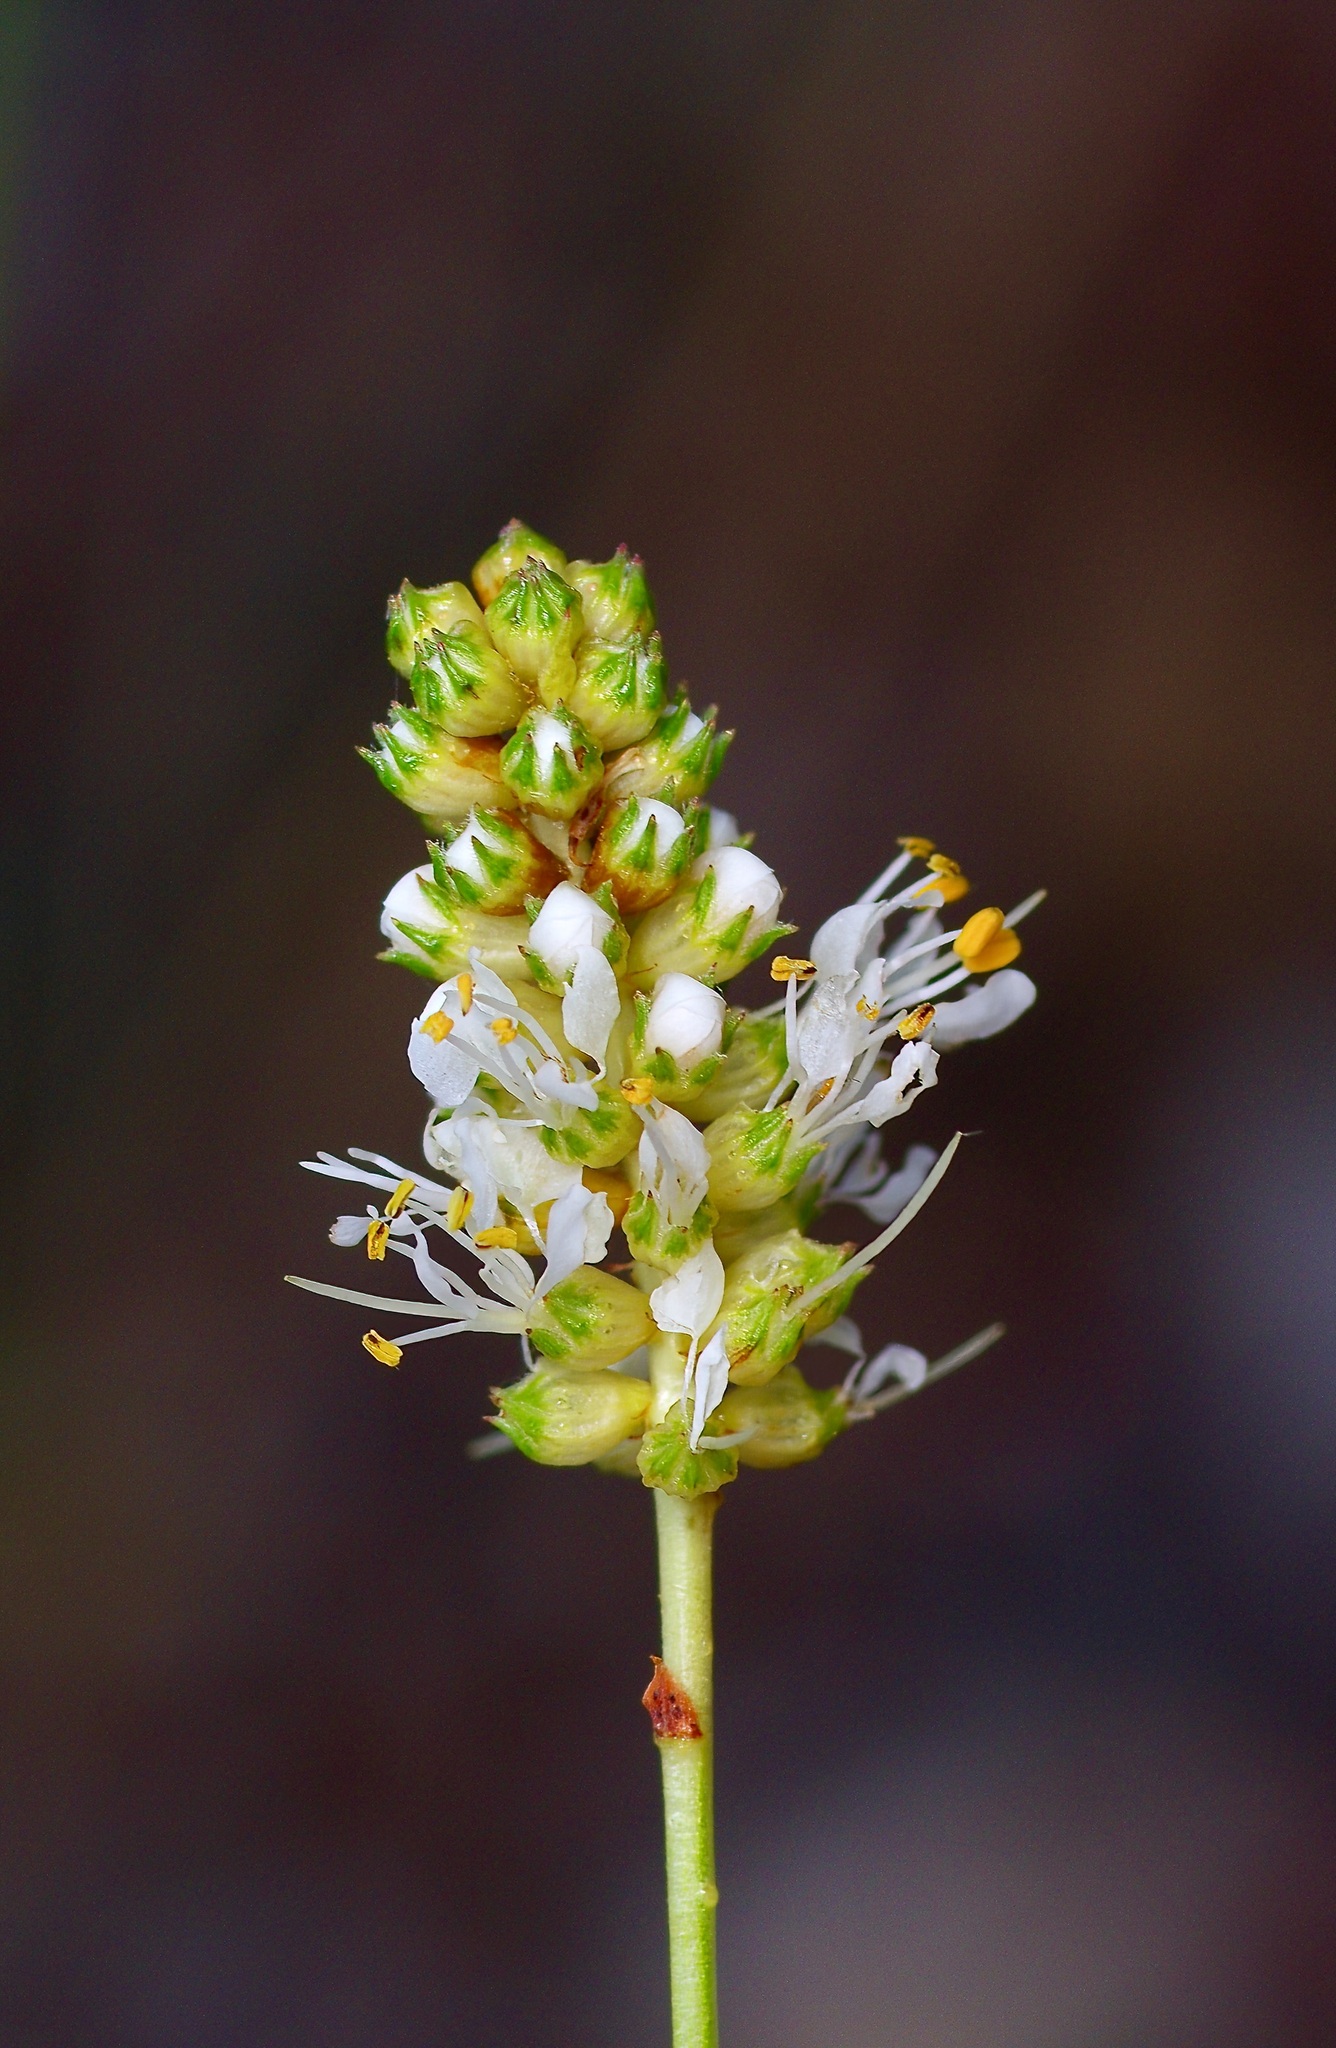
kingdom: Plantae
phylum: Tracheophyta
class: Magnoliopsida
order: Fabales
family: Fabaceae
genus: Dalea
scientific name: Dalea candida
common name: White prairie-clover
